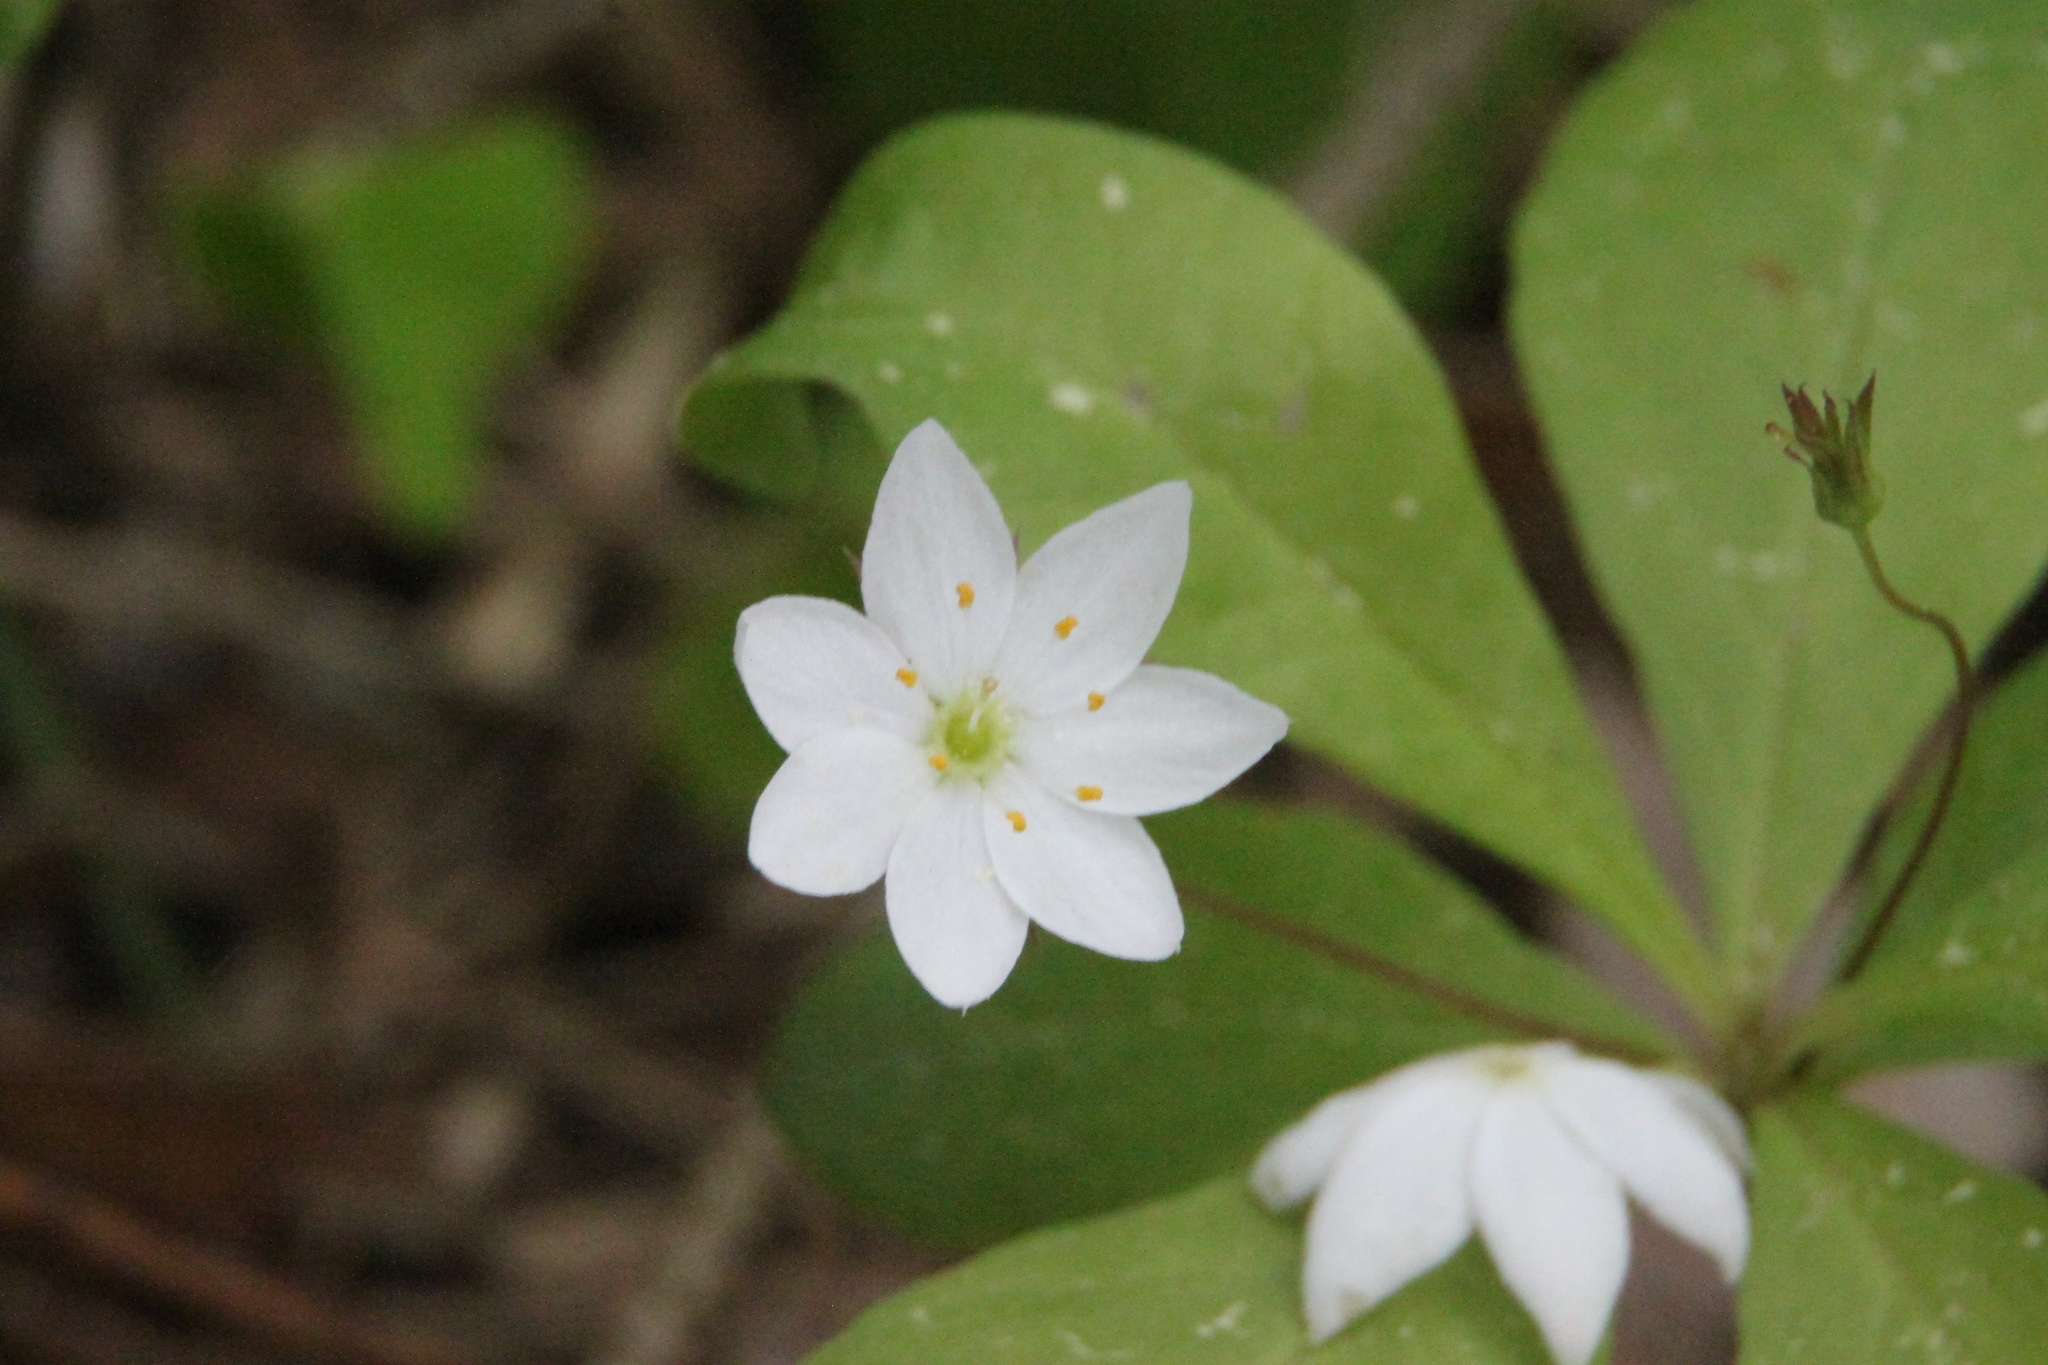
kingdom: Plantae
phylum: Tracheophyta
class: Magnoliopsida
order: Ericales
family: Primulaceae
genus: Lysimachia
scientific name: Lysimachia europaea
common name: Arctic starflower
